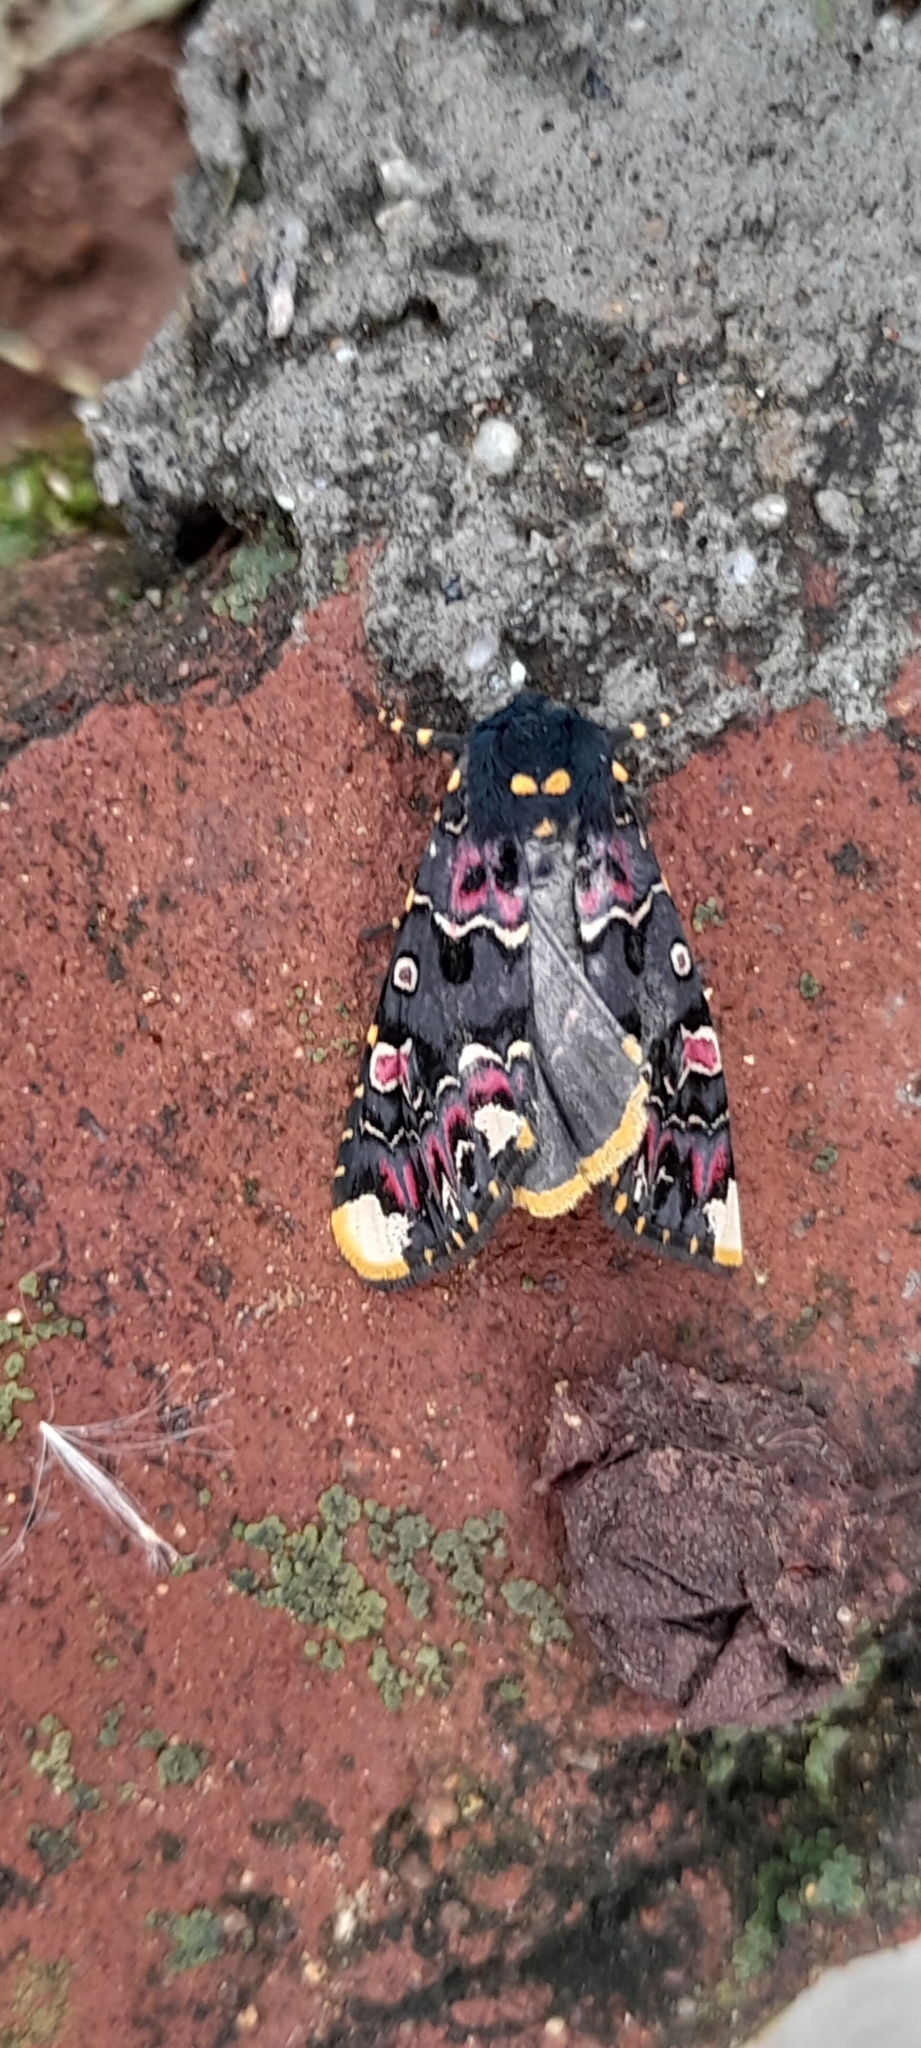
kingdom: Animalia
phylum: Arthropoda
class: Insecta
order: Lepidoptera
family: Noctuidae
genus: Polytela
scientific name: Polytela gloriosae
